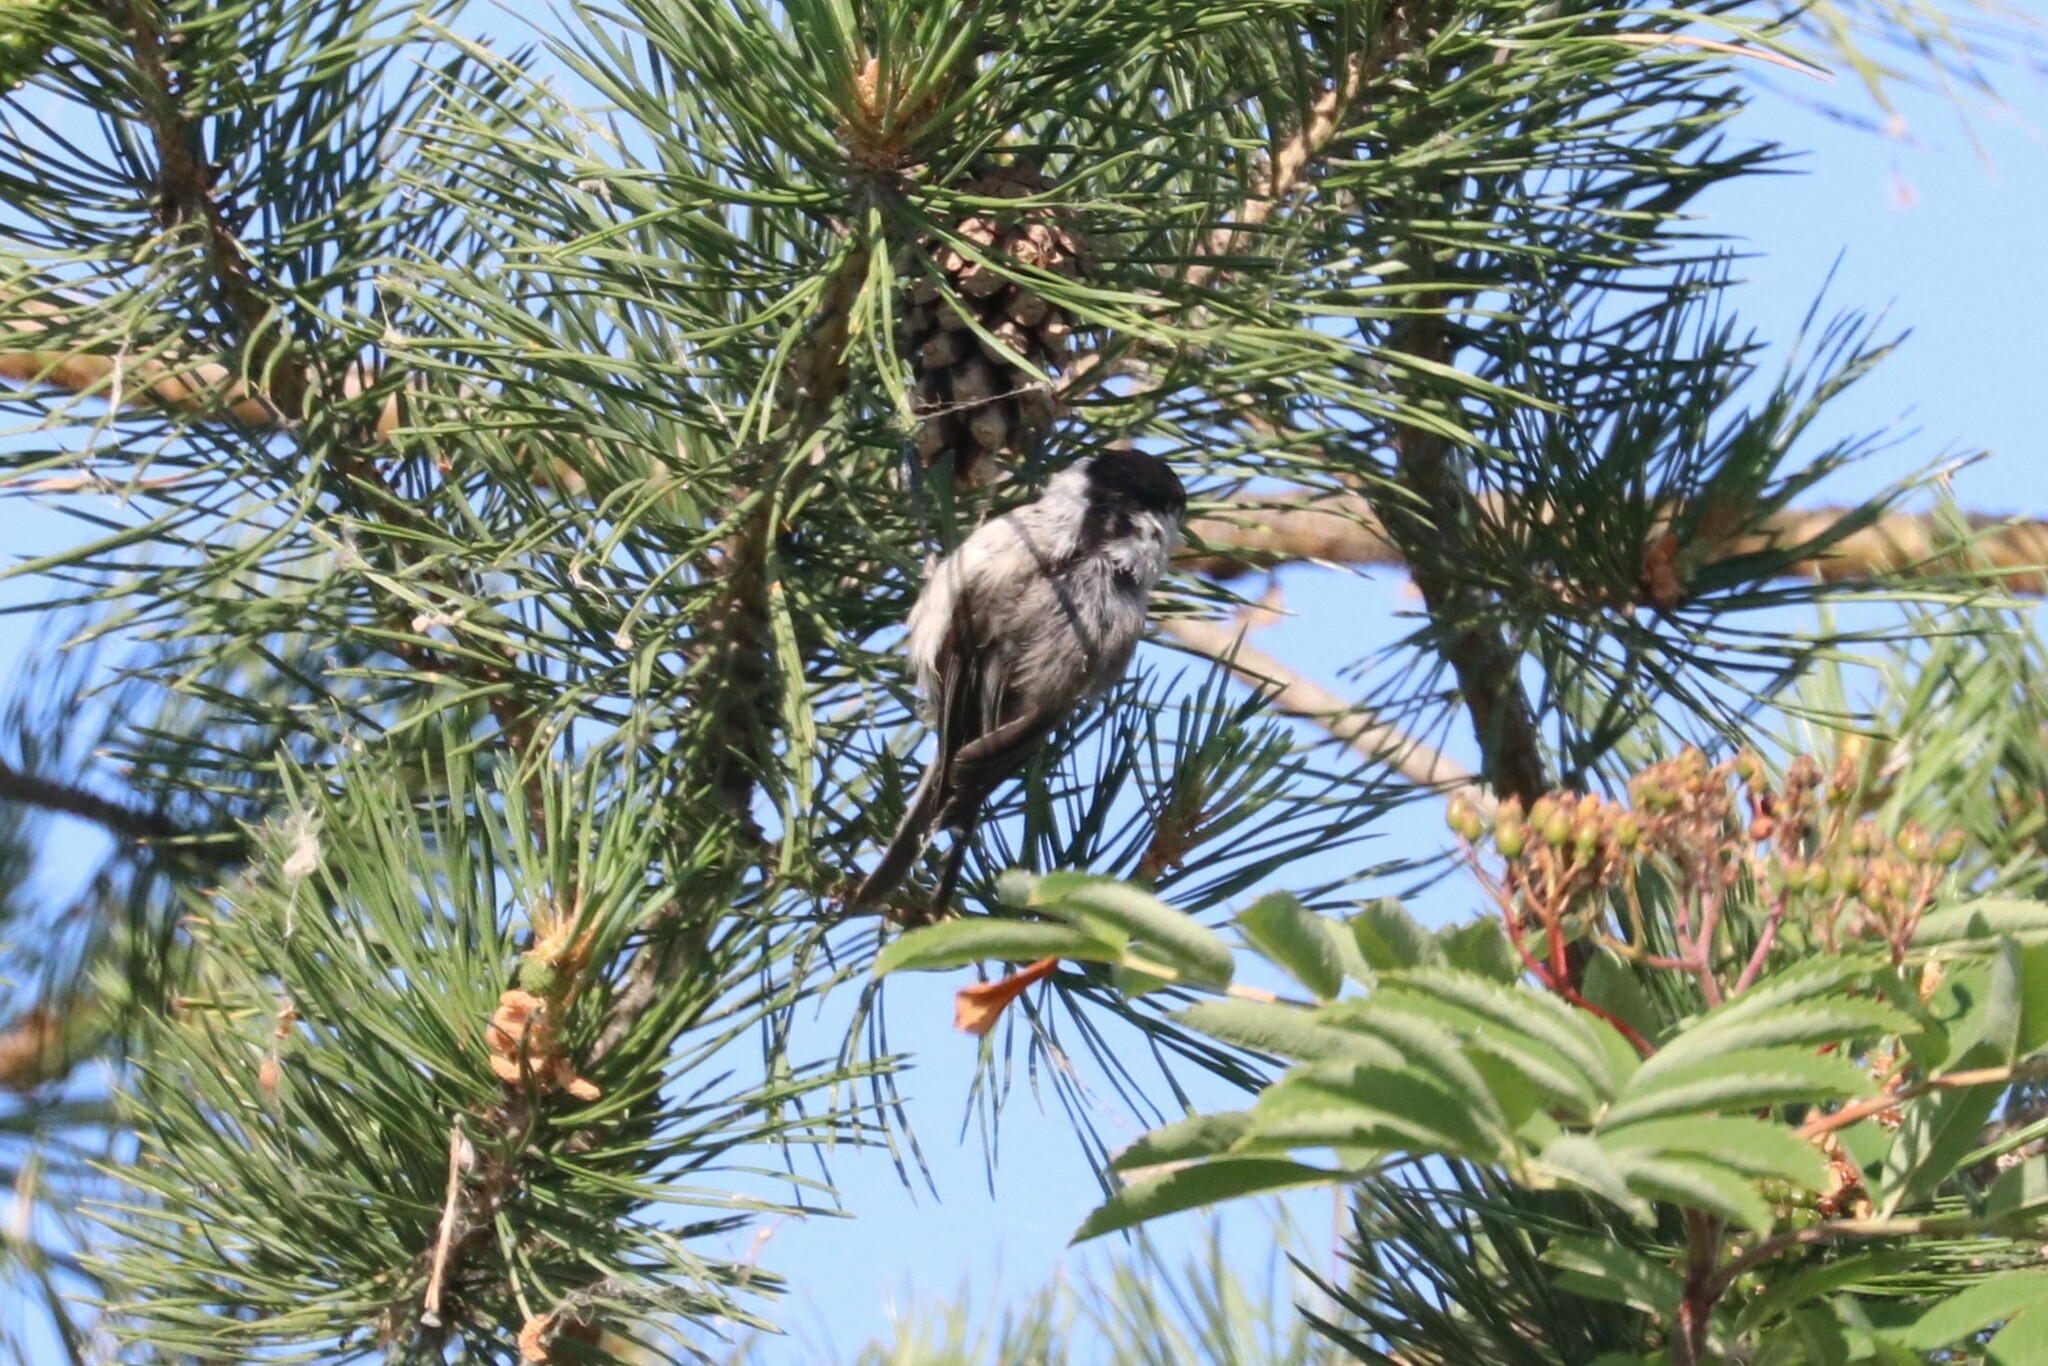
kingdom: Animalia
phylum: Chordata
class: Aves
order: Passeriformes
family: Paridae
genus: Poecile
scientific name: Poecile montanus
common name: Willow tit
